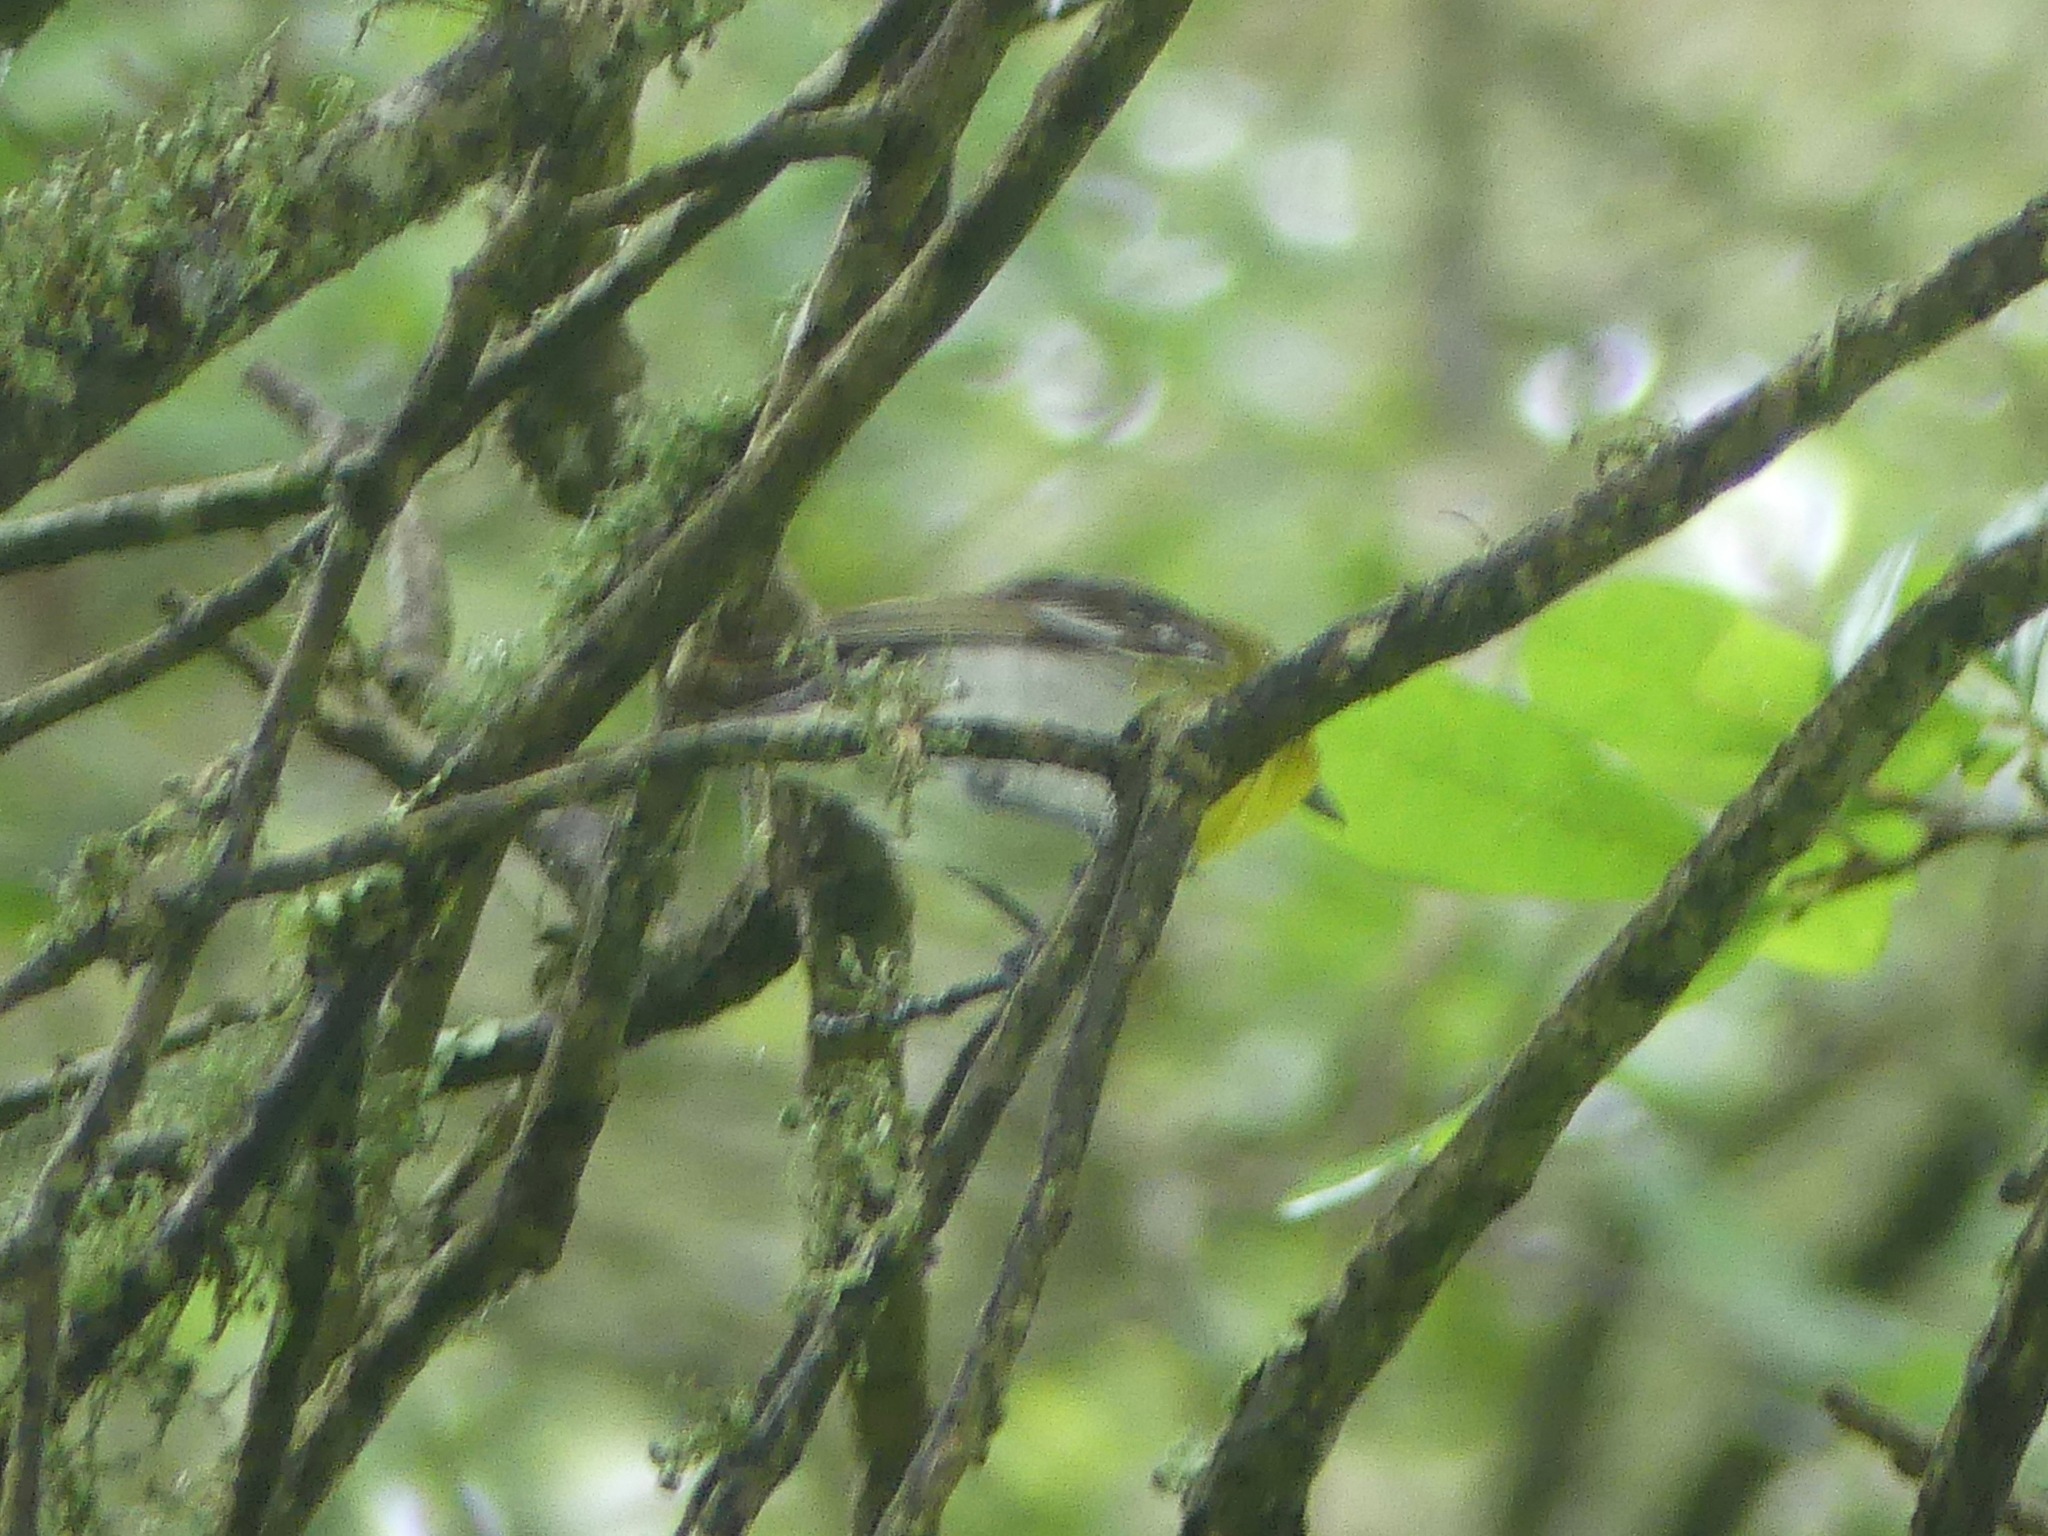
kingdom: Animalia
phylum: Chordata
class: Aves
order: Passeriformes
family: Vireonidae
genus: Vireo
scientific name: Vireo flavifrons
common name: Yellow-throated vireo
